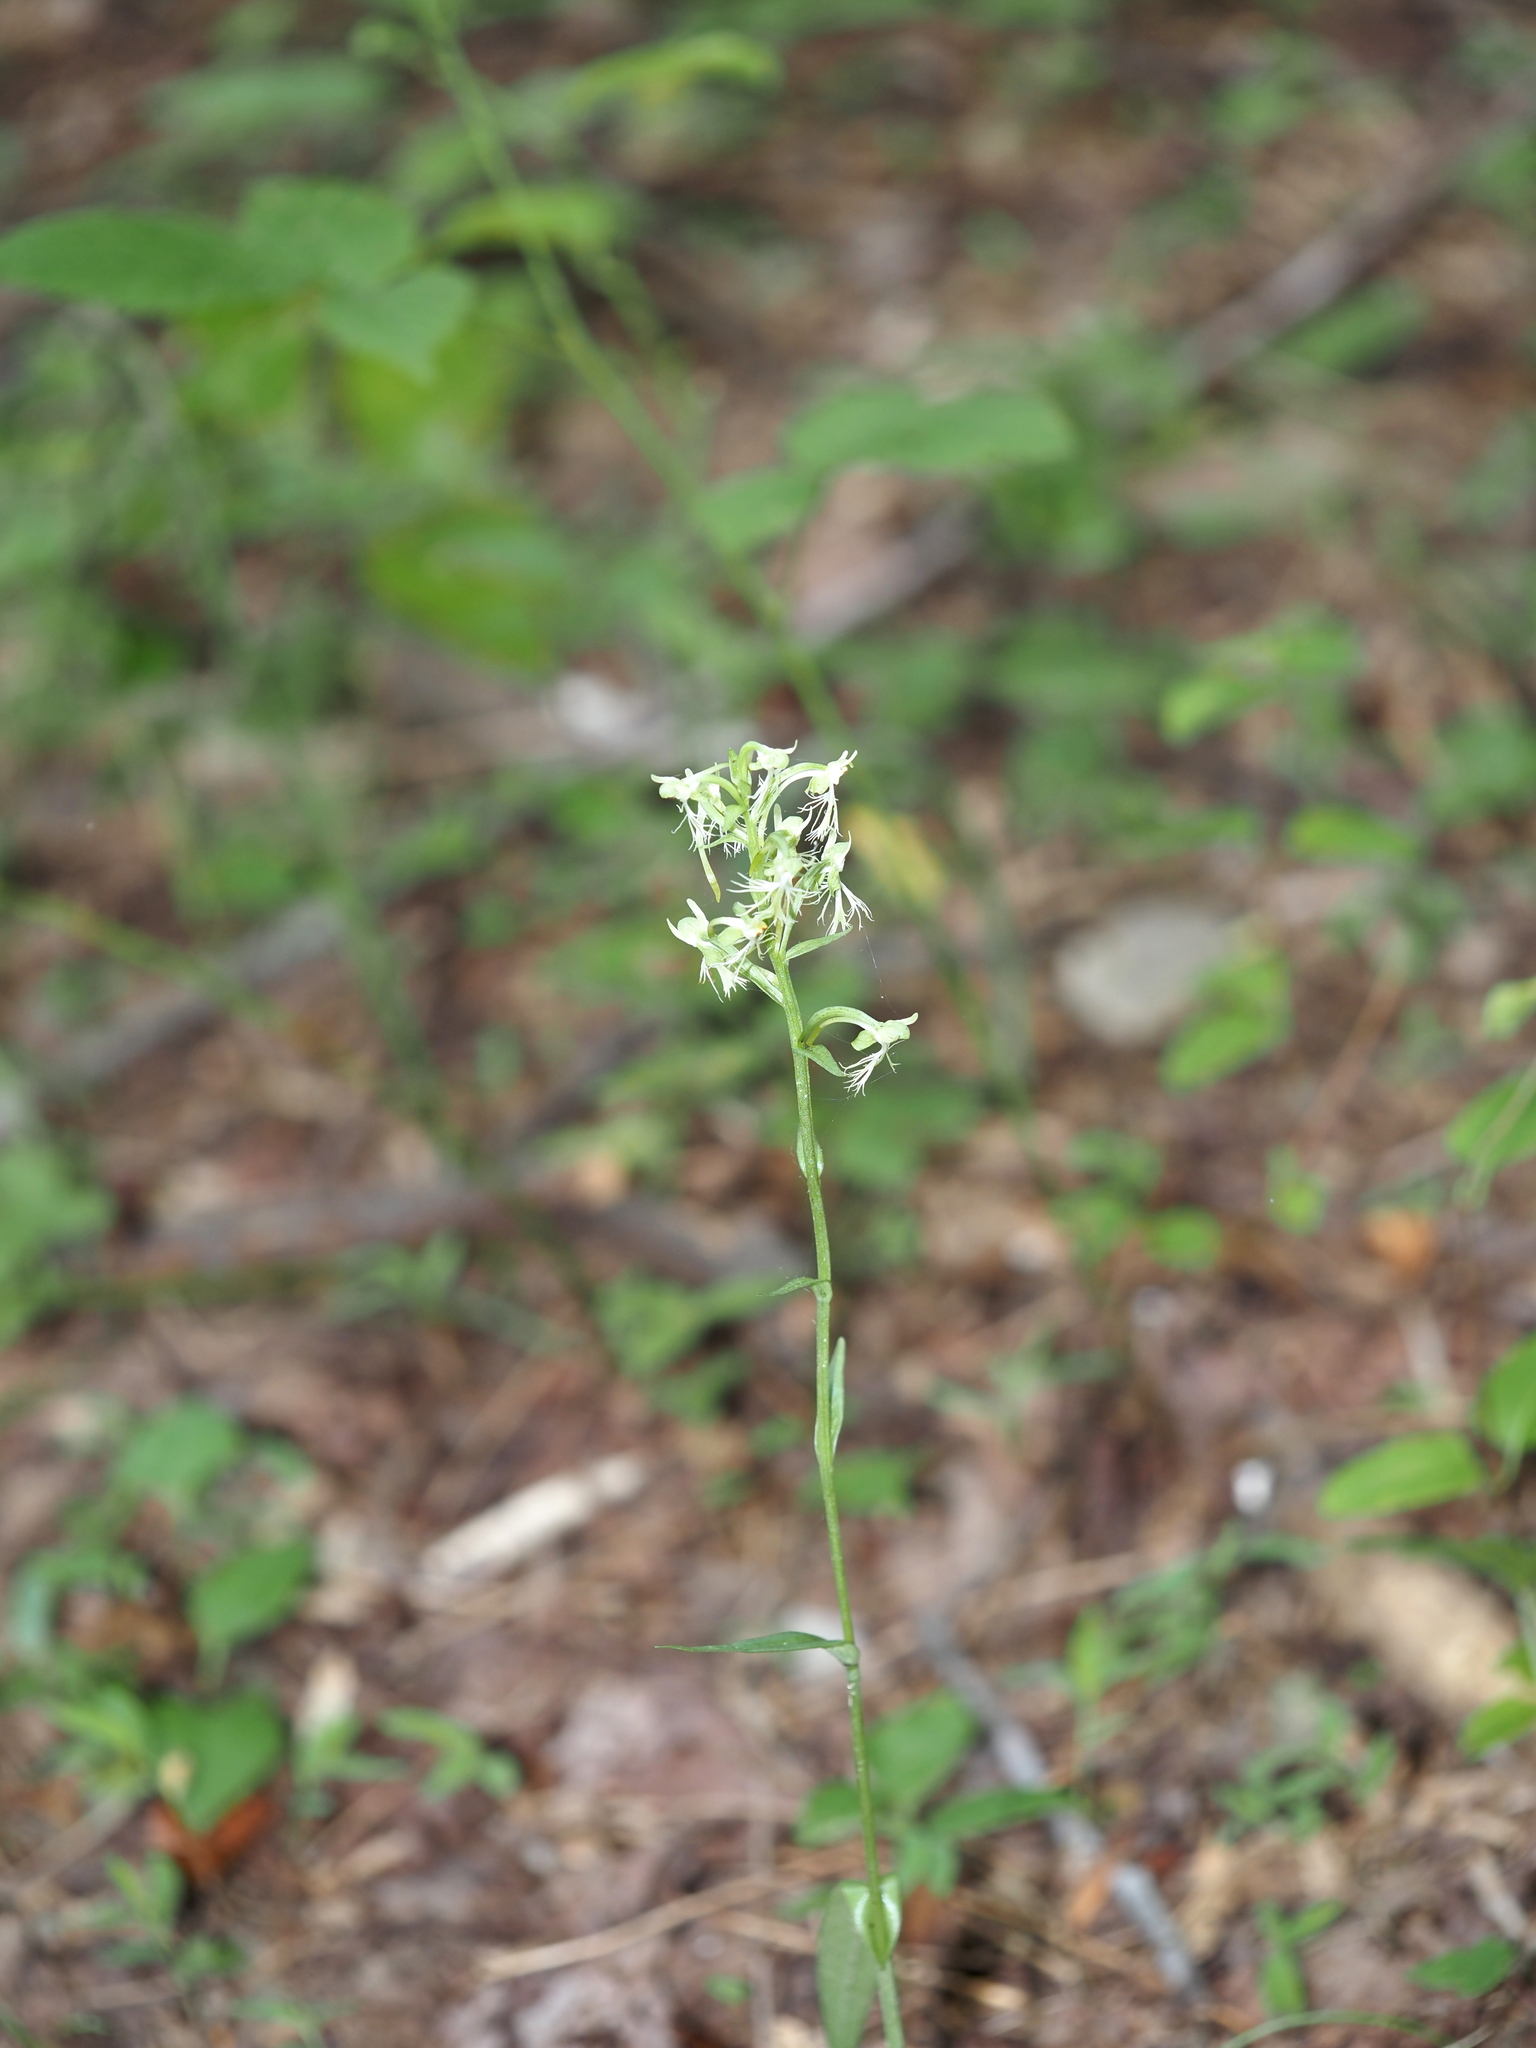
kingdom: Plantae
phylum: Tracheophyta
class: Liliopsida
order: Asparagales
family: Orchidaceae
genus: Platanthera
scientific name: Platanthera lacera
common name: Green fringed orchid
